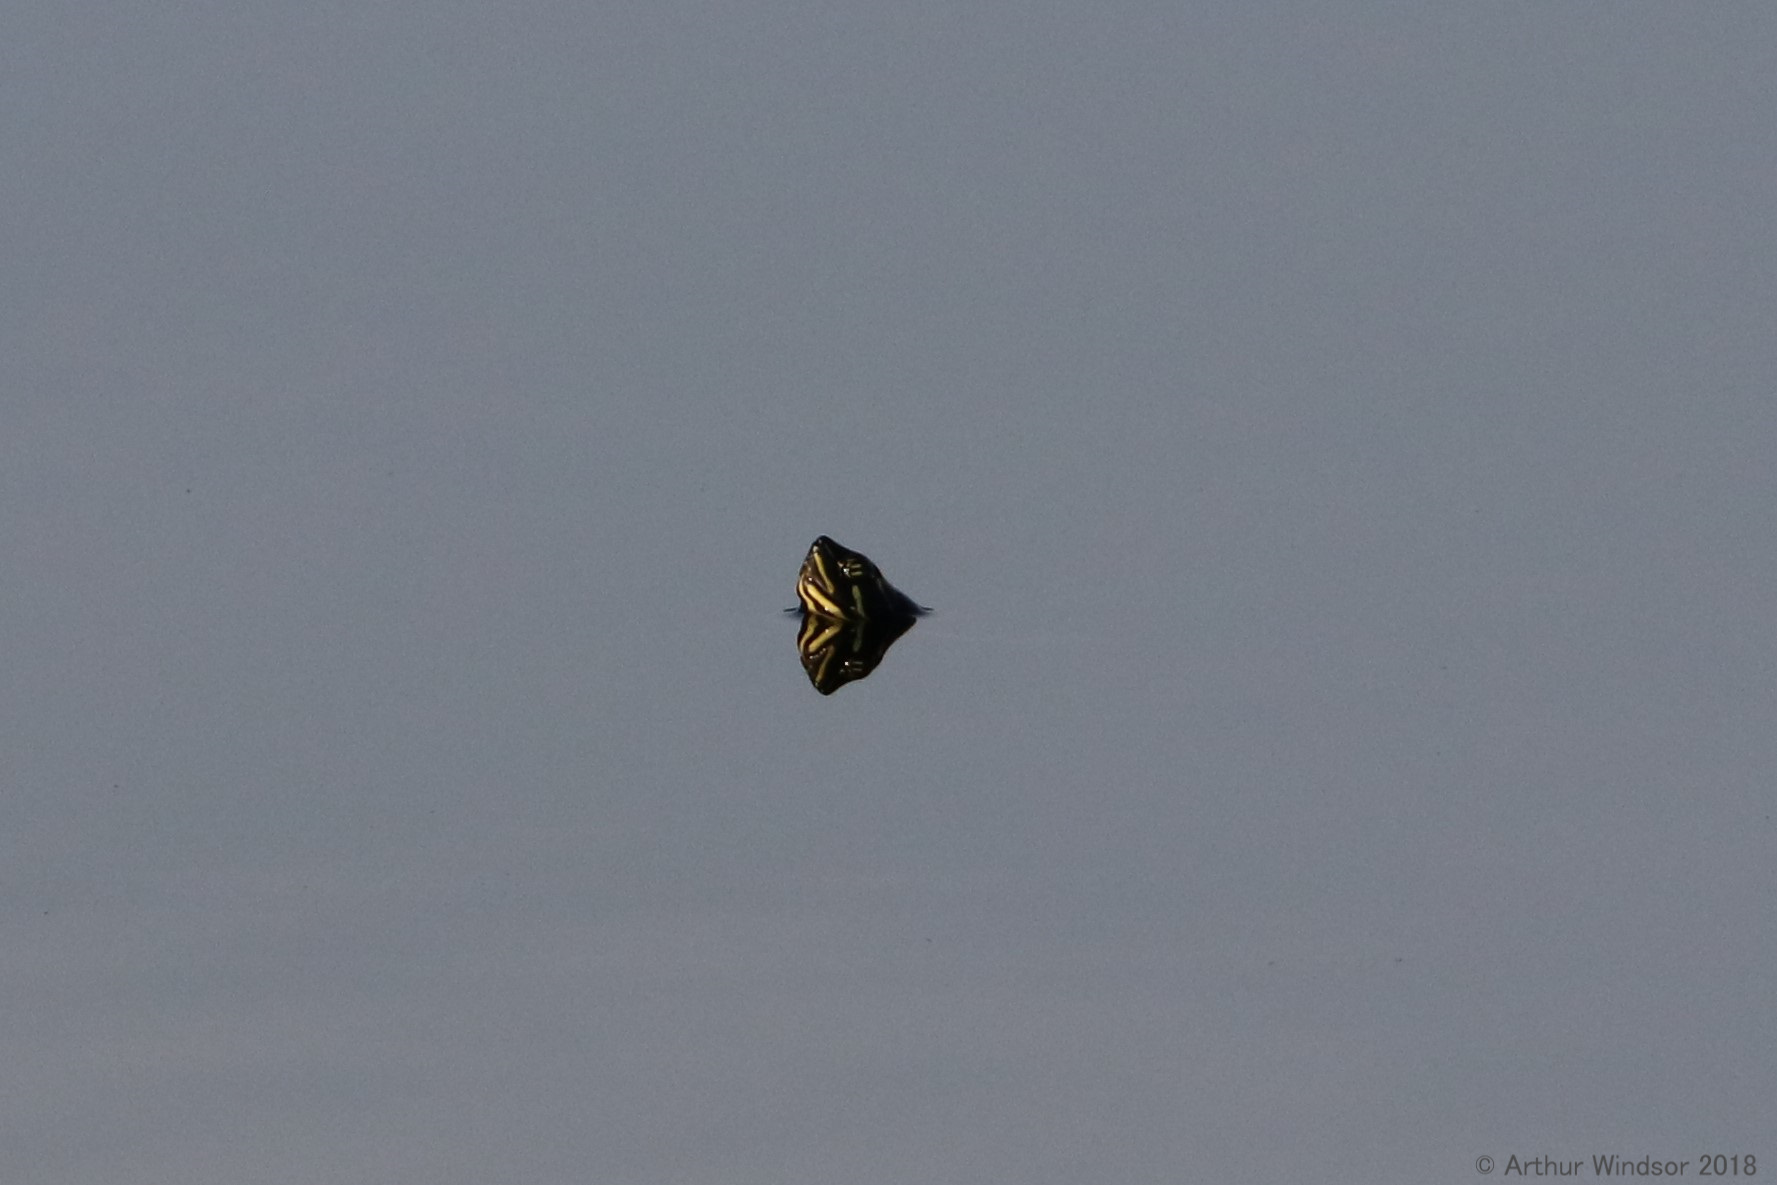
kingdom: Animalia
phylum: Chordata
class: Testudines
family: Emydidae
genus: Pseudemys
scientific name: Pseudemys peninsularis
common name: Peninsula cooter
